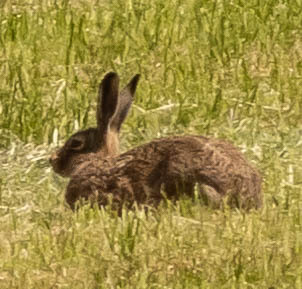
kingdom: Animalia
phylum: Chordata
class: Mammalia
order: Lagomorpha
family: Leporidae
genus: Lepus
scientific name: Lepus europaeus
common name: European hare
